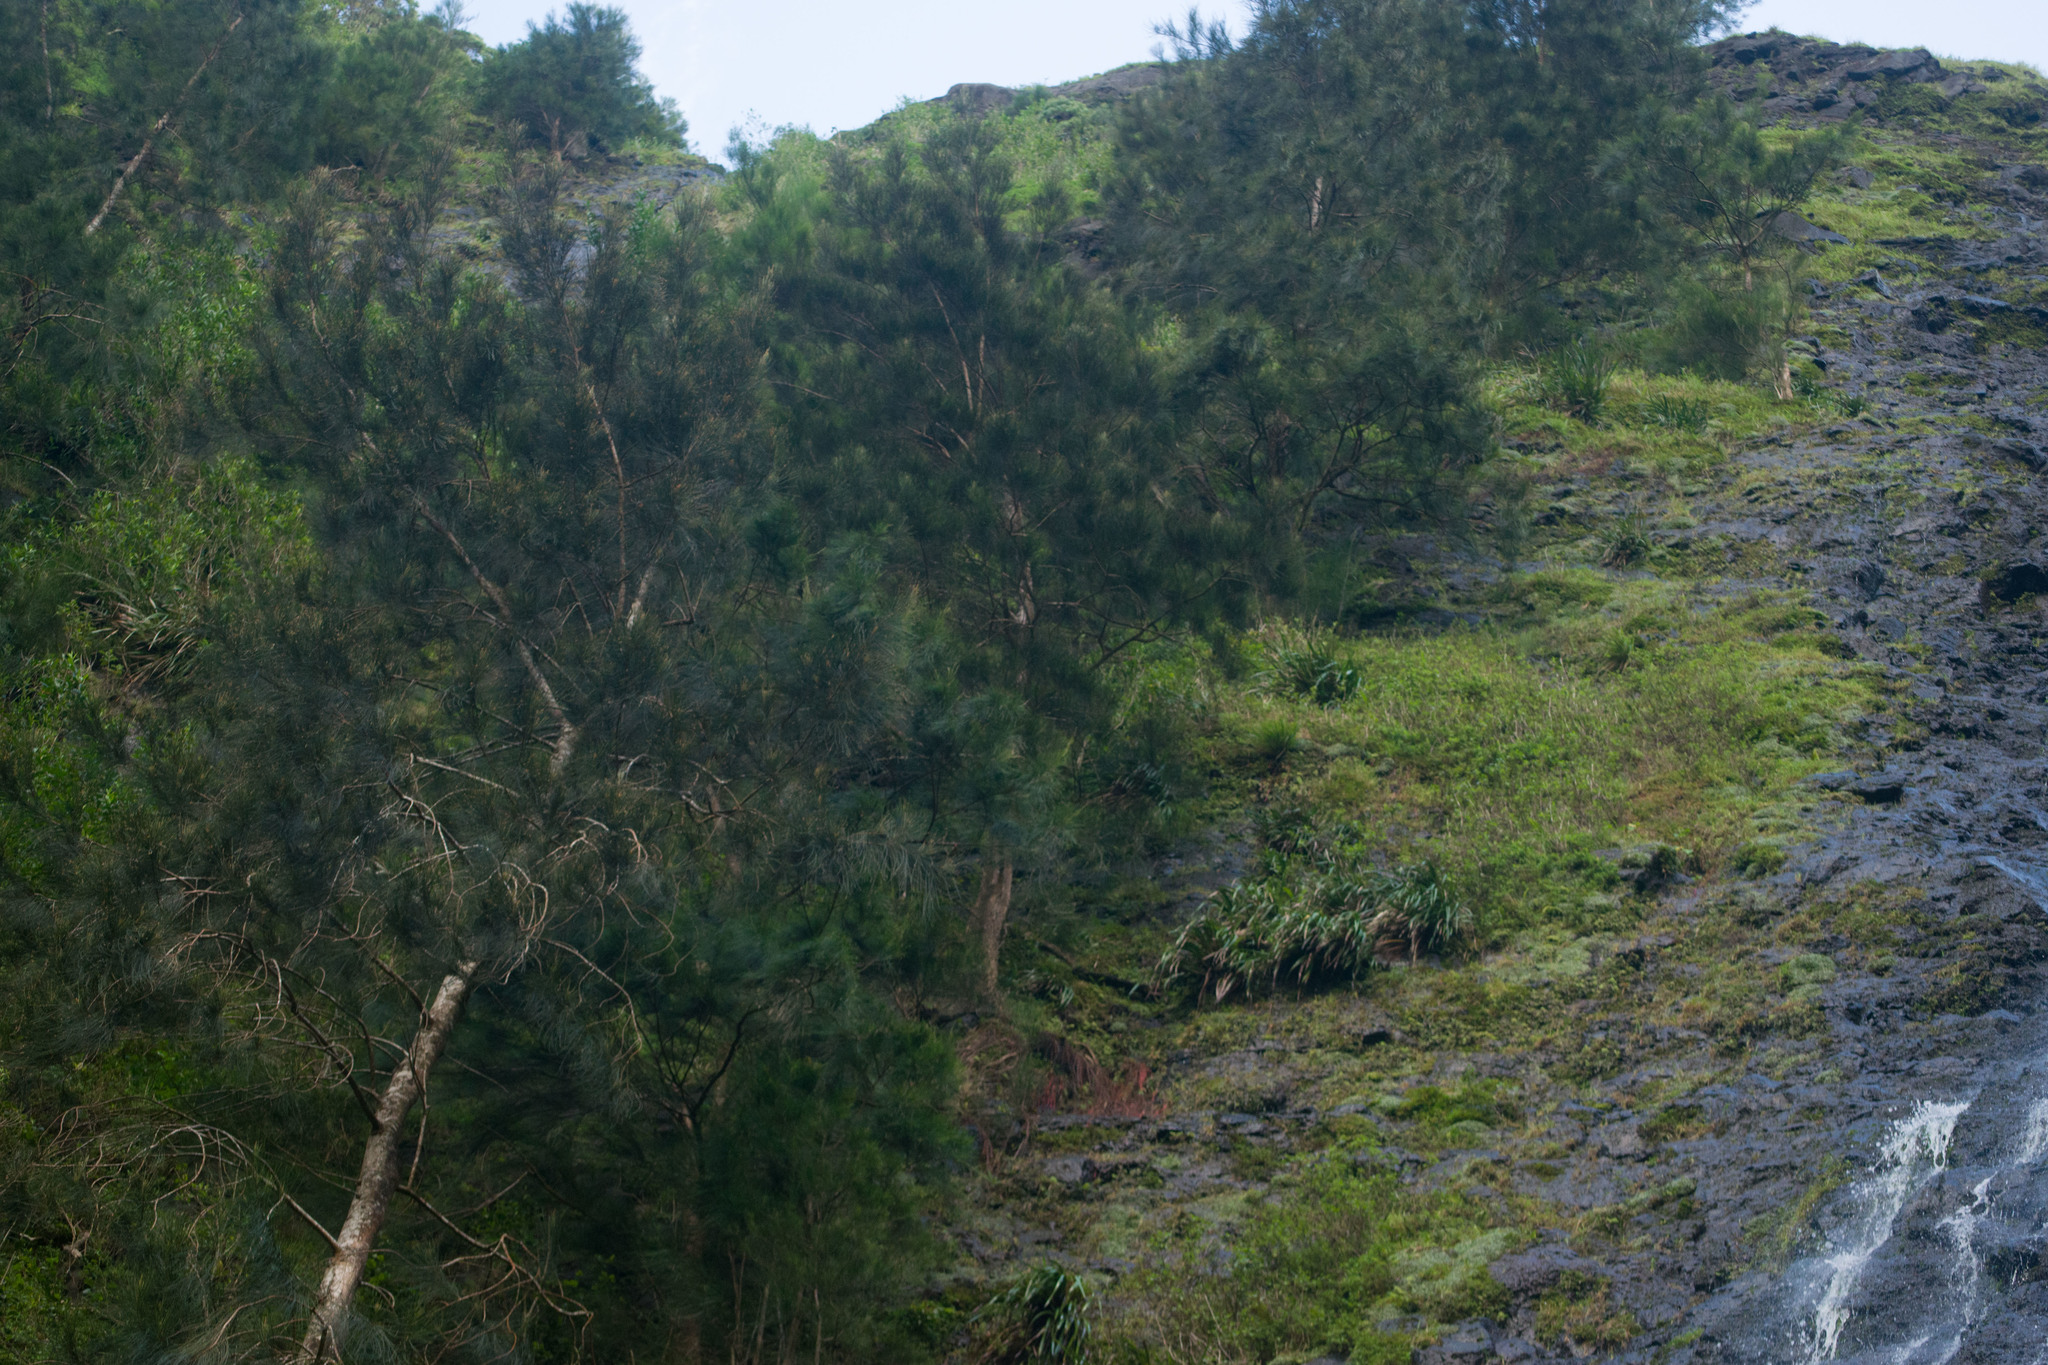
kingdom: Plantae
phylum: Tracheophyta
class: Magnoliopsida
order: Fagales
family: Casuarinaceae
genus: Casuarina
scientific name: Casuarina equisetifolia
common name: Beach sheoak
